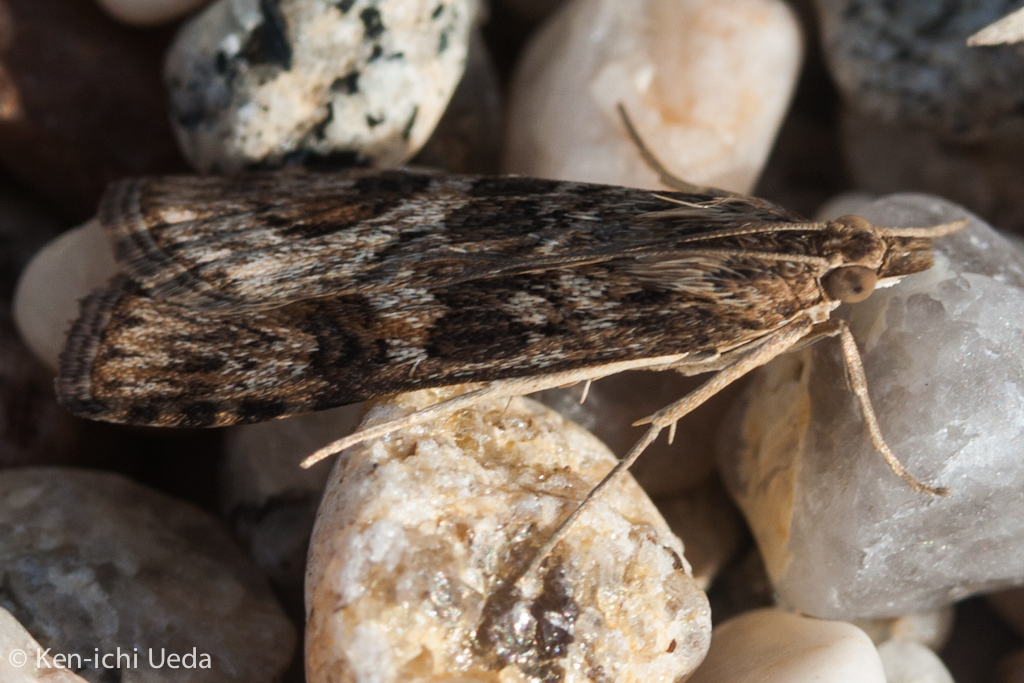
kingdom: Animalia
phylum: Arthropoda
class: Insecta
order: Lepidoptera
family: Crambidae
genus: Nomophila
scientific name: Nomophila nearctica
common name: American rush veneer
